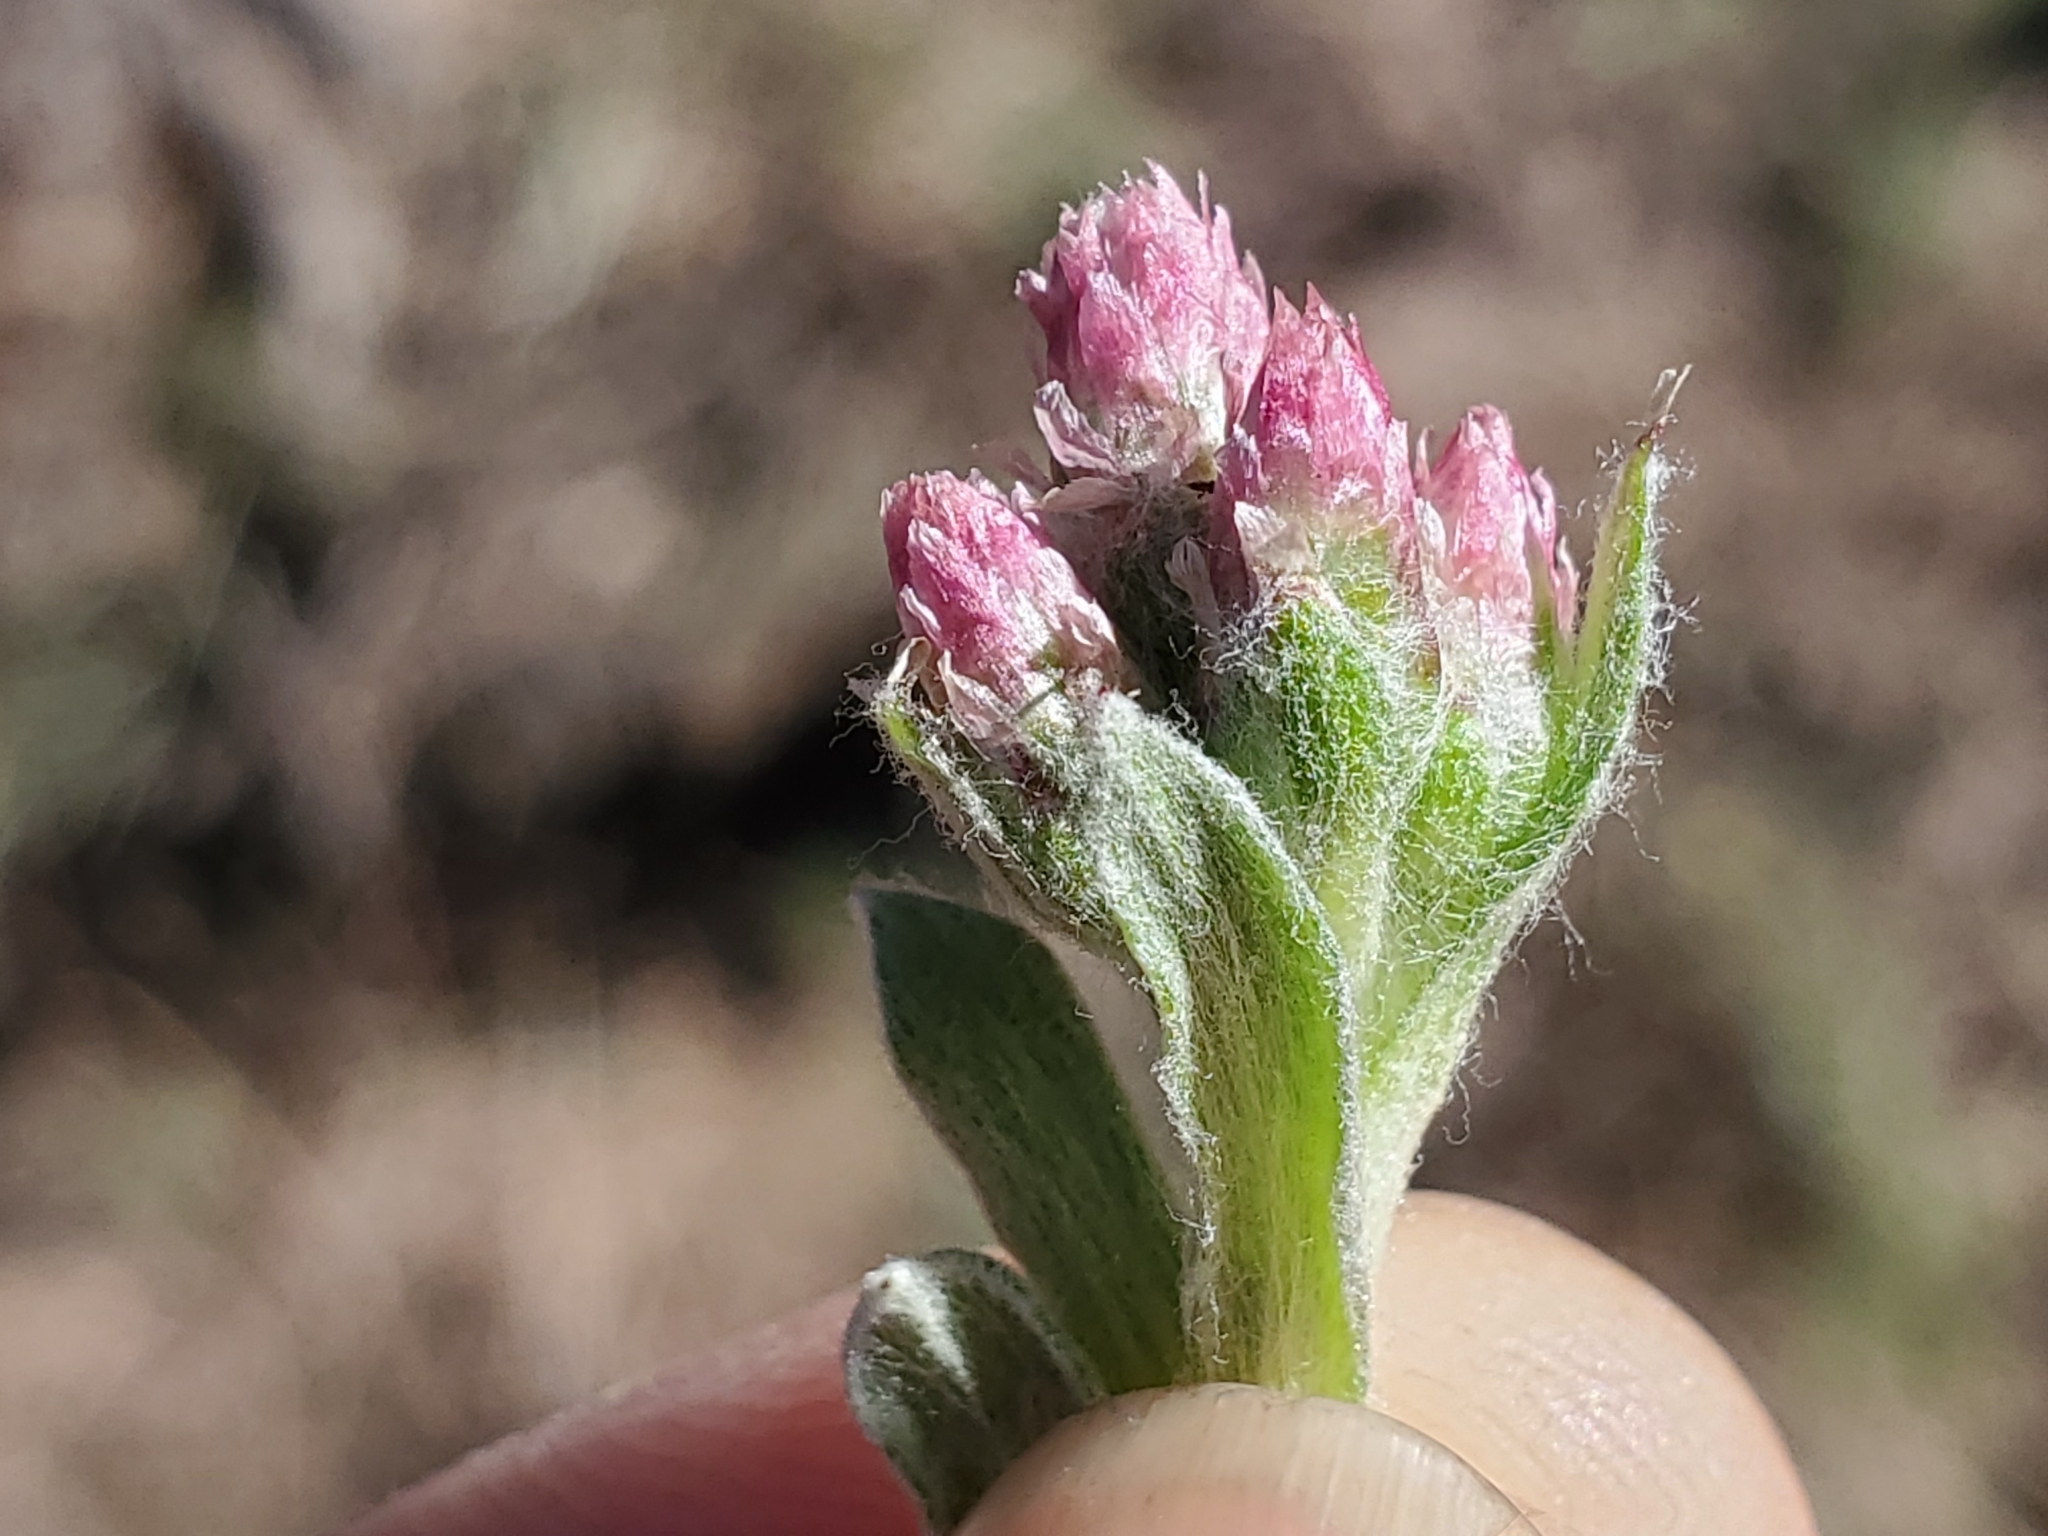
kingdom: Plantae
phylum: Tracheophyta
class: Magnoliopsida
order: Asterales
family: Asteraceae
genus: Antennaria
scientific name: Antennaria rosea
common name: Rosy pussytoes
